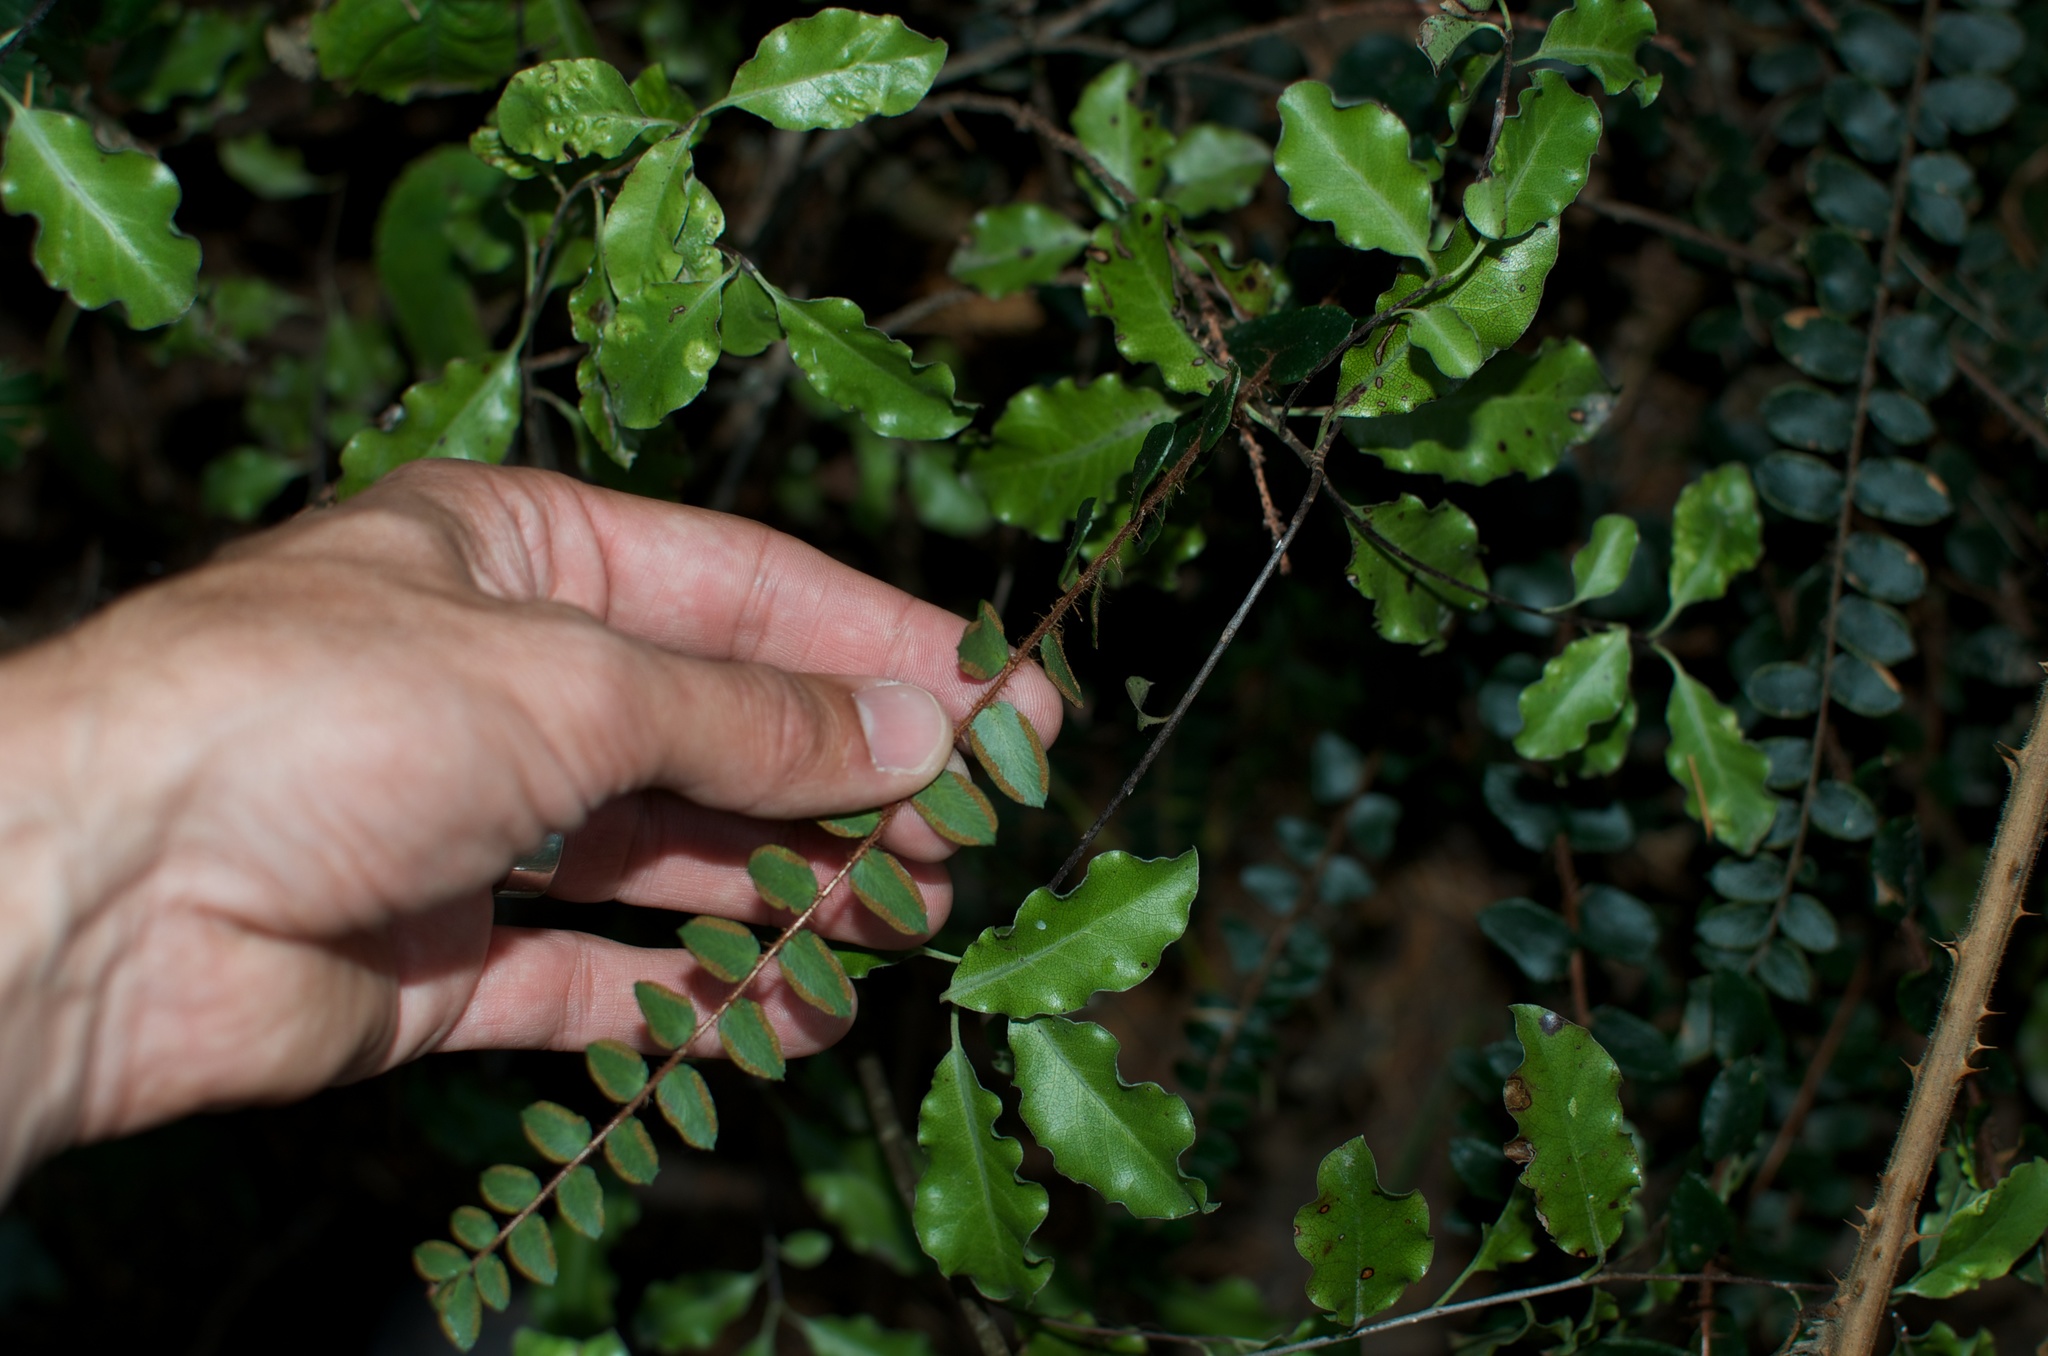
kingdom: Plantae
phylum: Tracheophyta
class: Polypodiopsida
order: Polypodiales
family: Pteridaceae
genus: Pellaea
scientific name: Pellaea rotundifolia
